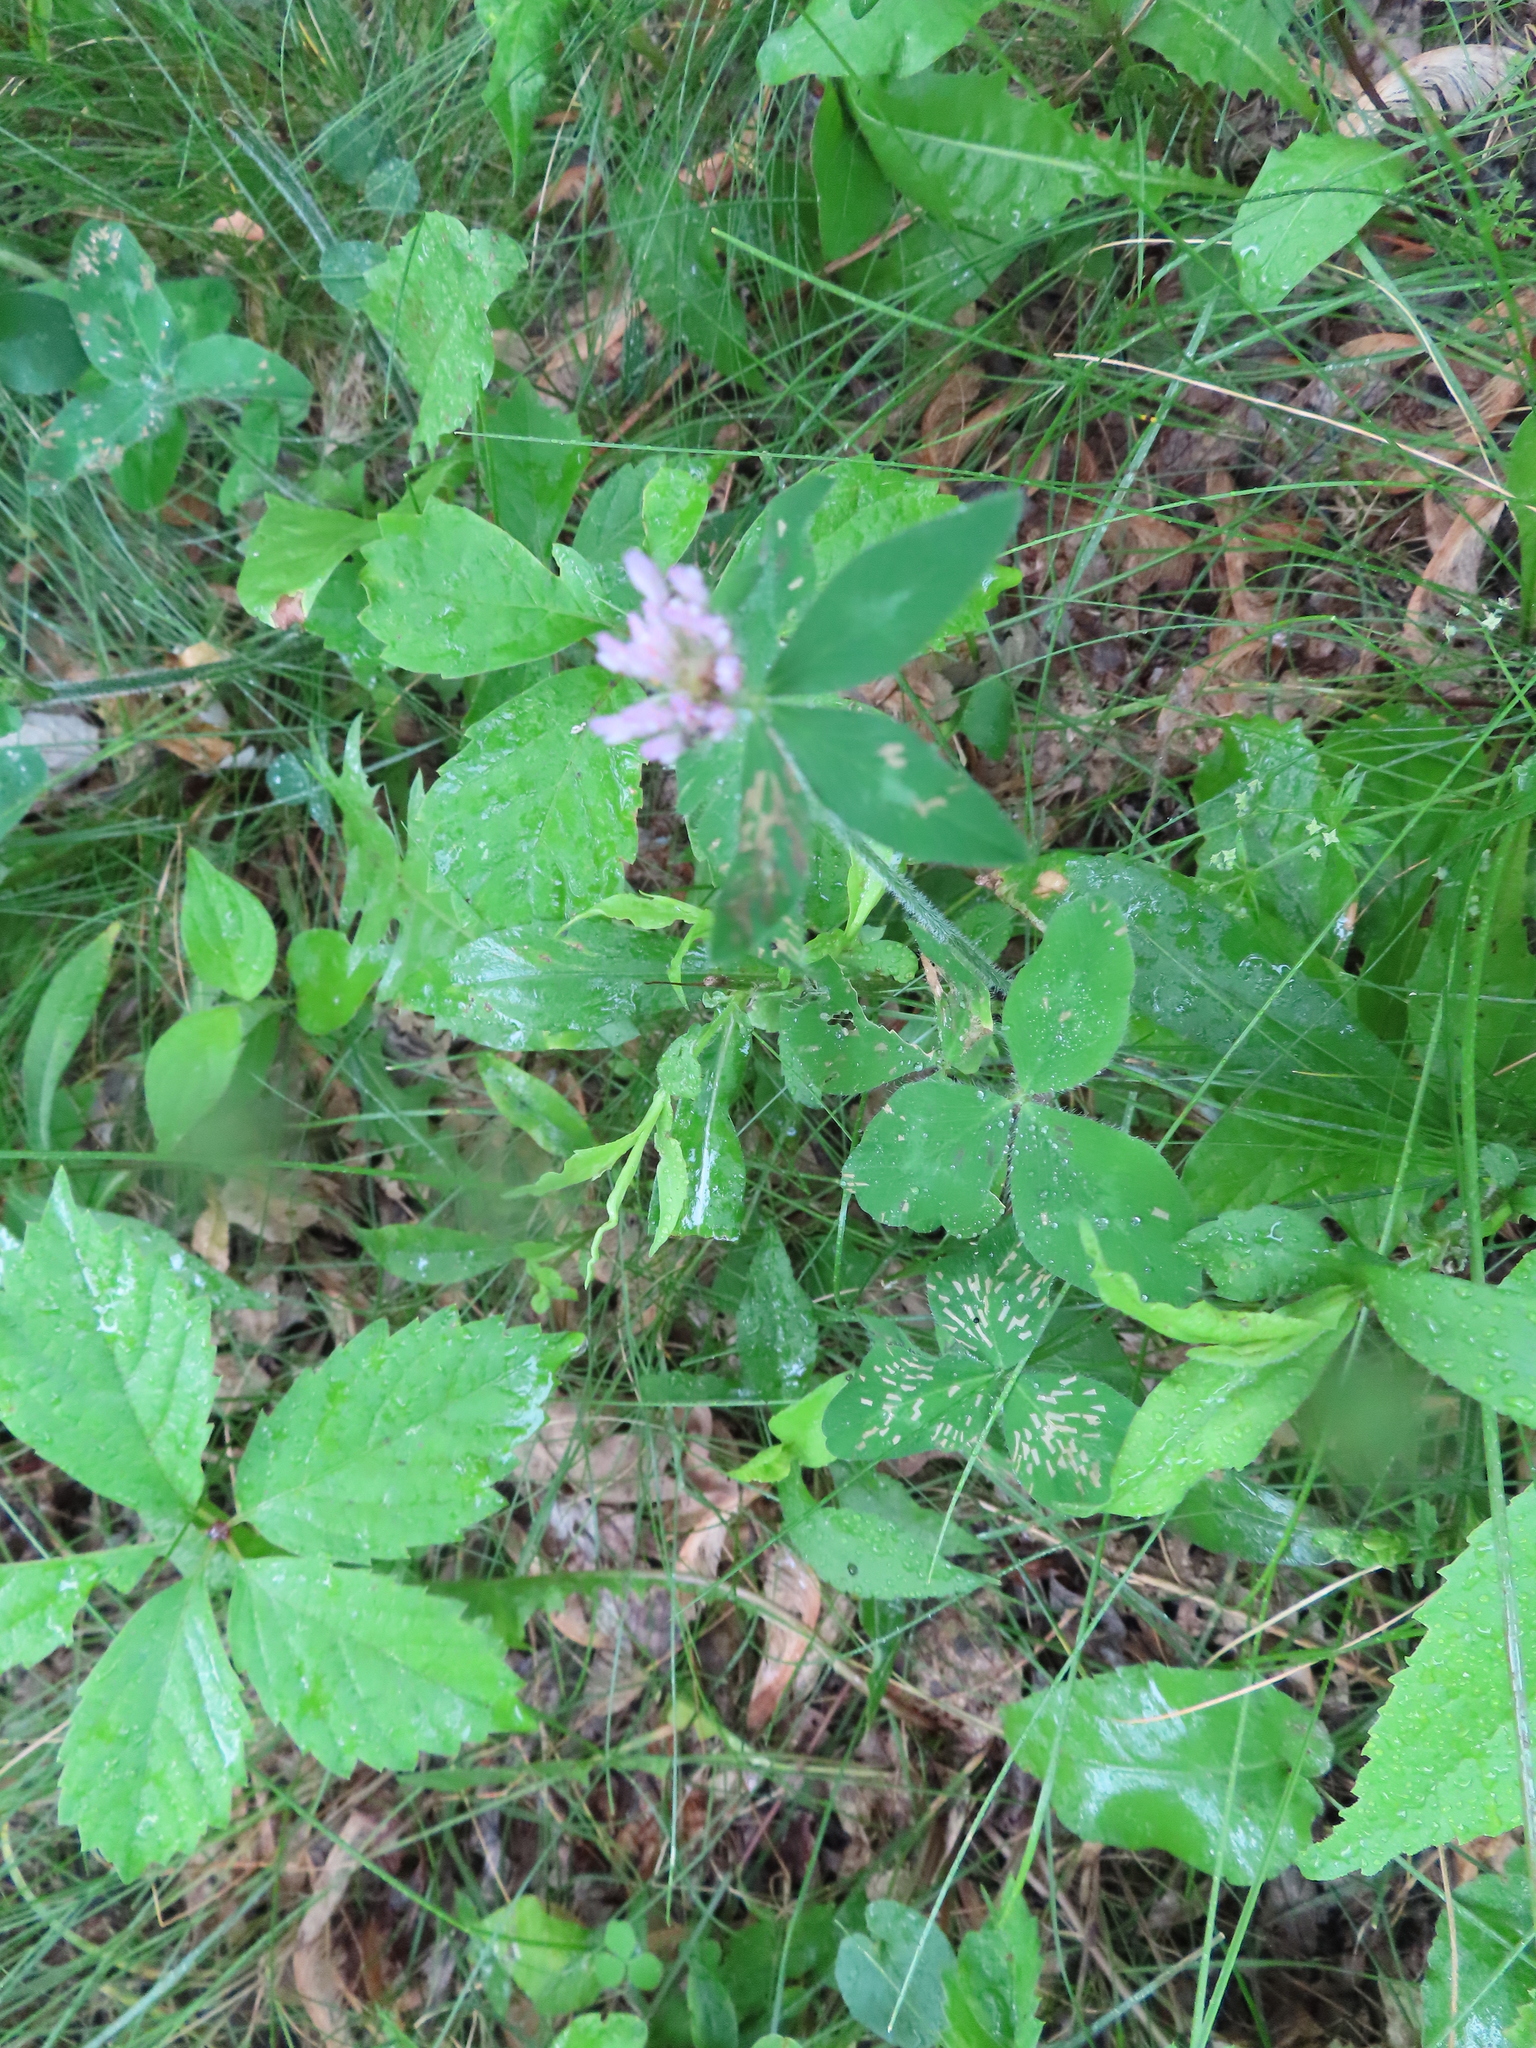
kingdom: Plantae
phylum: Tracheophyta
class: Magnoliopsida
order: Fabales
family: Fabaceae
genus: Trifolium
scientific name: Trifolium pratense
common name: Red clover
